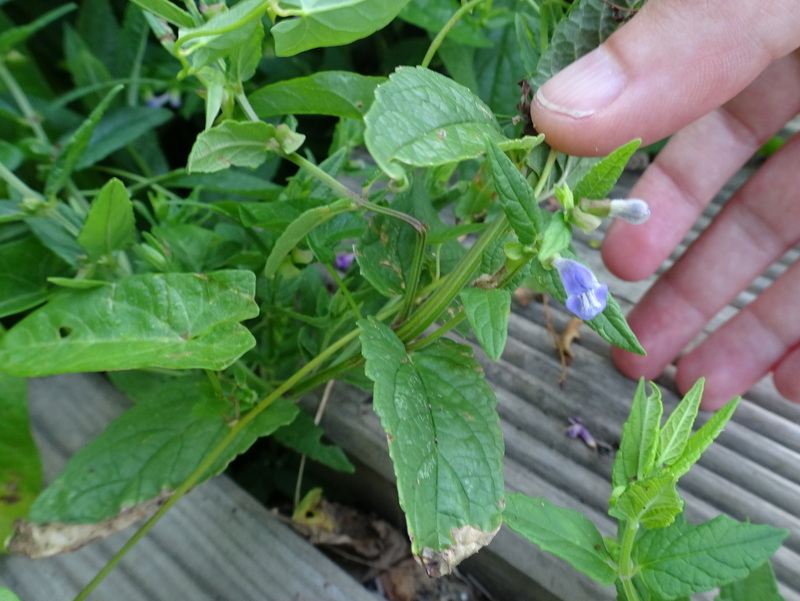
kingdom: Plantae
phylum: Tracheophyta
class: Magnoliopsida
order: Lamiales
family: Lamiaceae
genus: Scutellaria
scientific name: Scutellaria galericulata
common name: Skullcap
